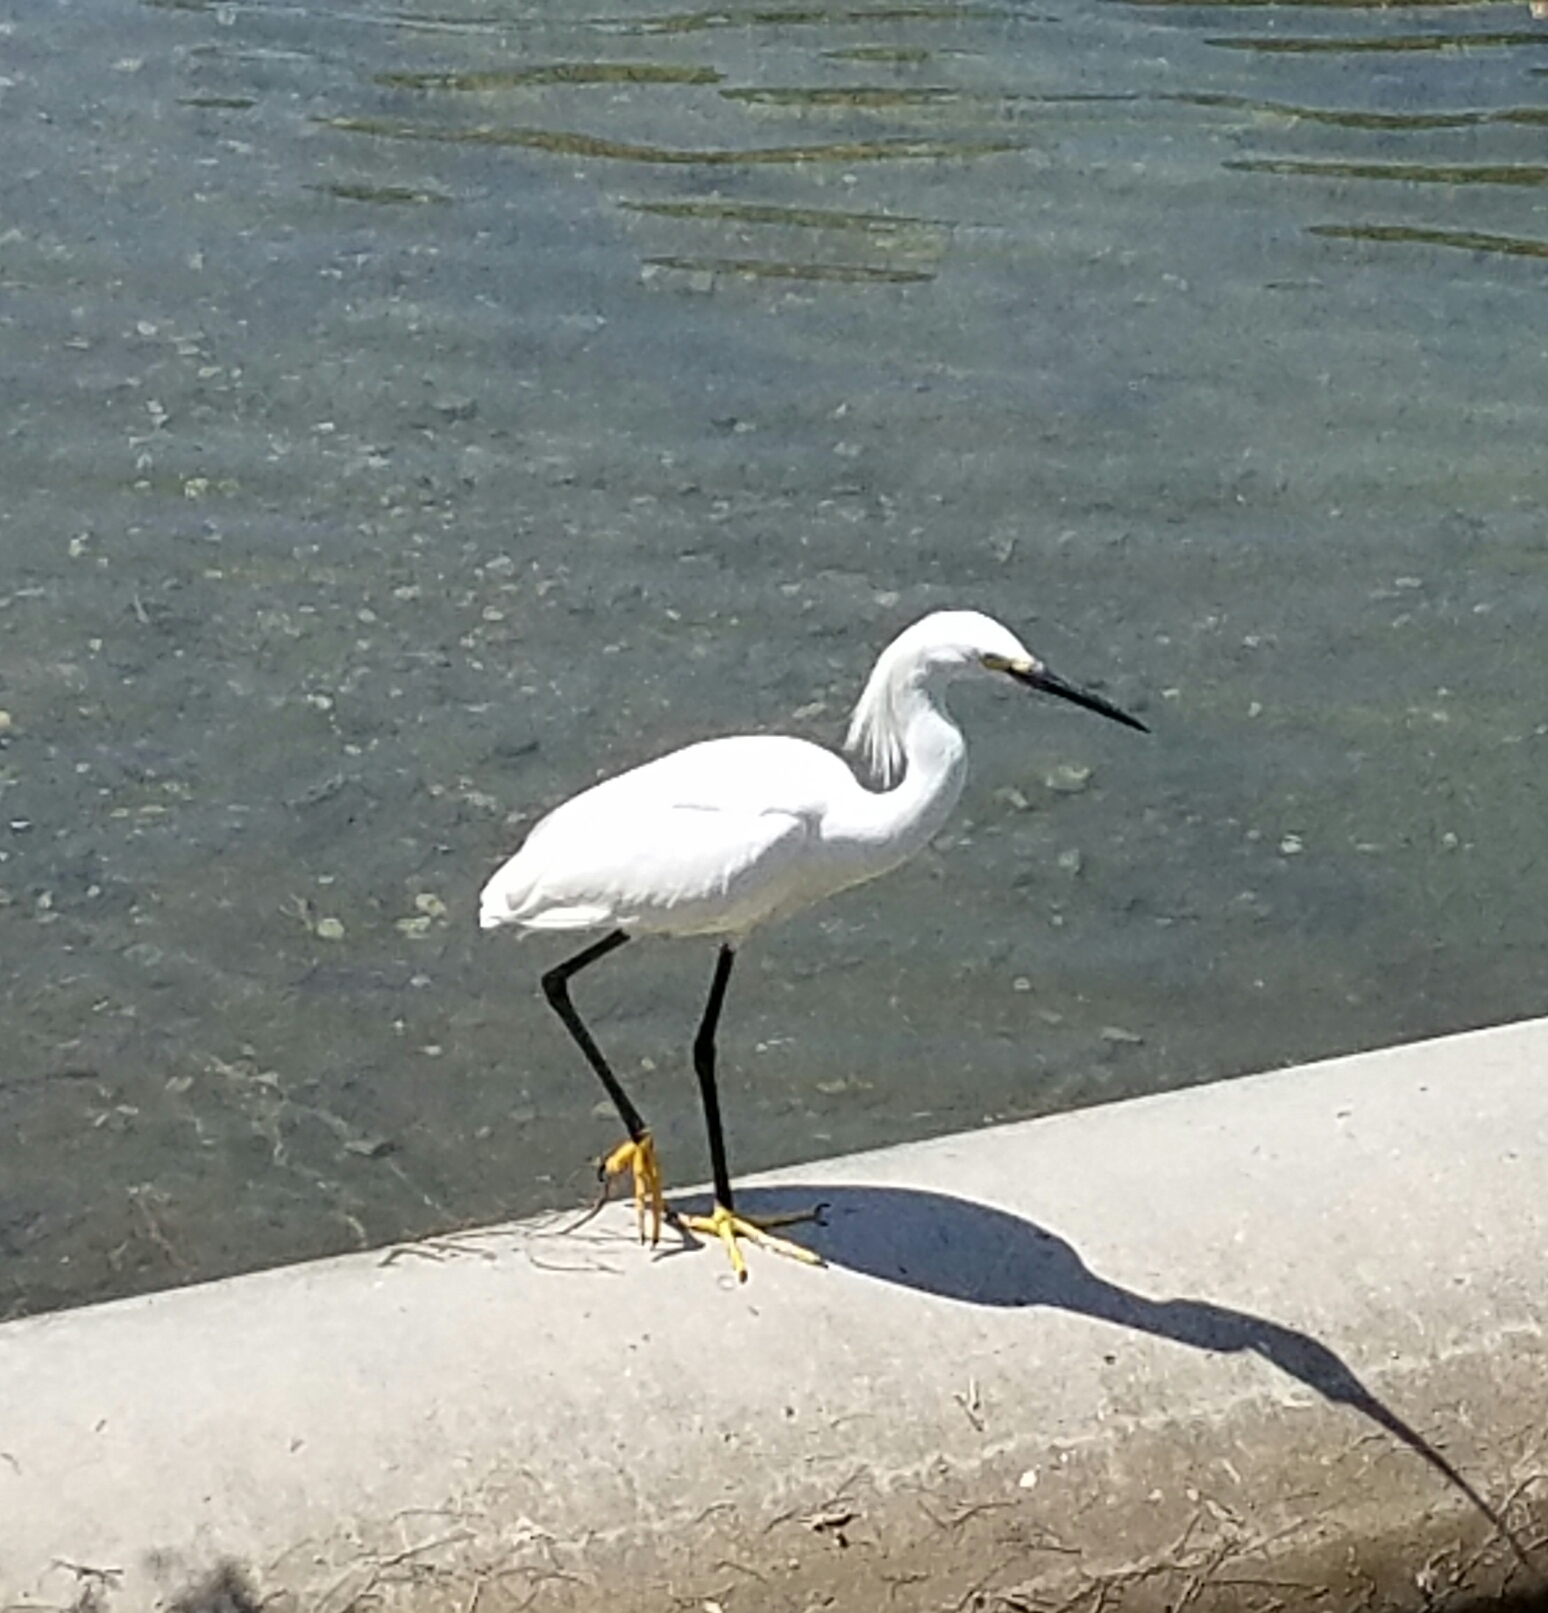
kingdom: Animalia
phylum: Chordata
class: Aves
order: Pelecaniformes
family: Ardeidae
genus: Egretta
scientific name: Egretta thula
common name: Snowy egret
